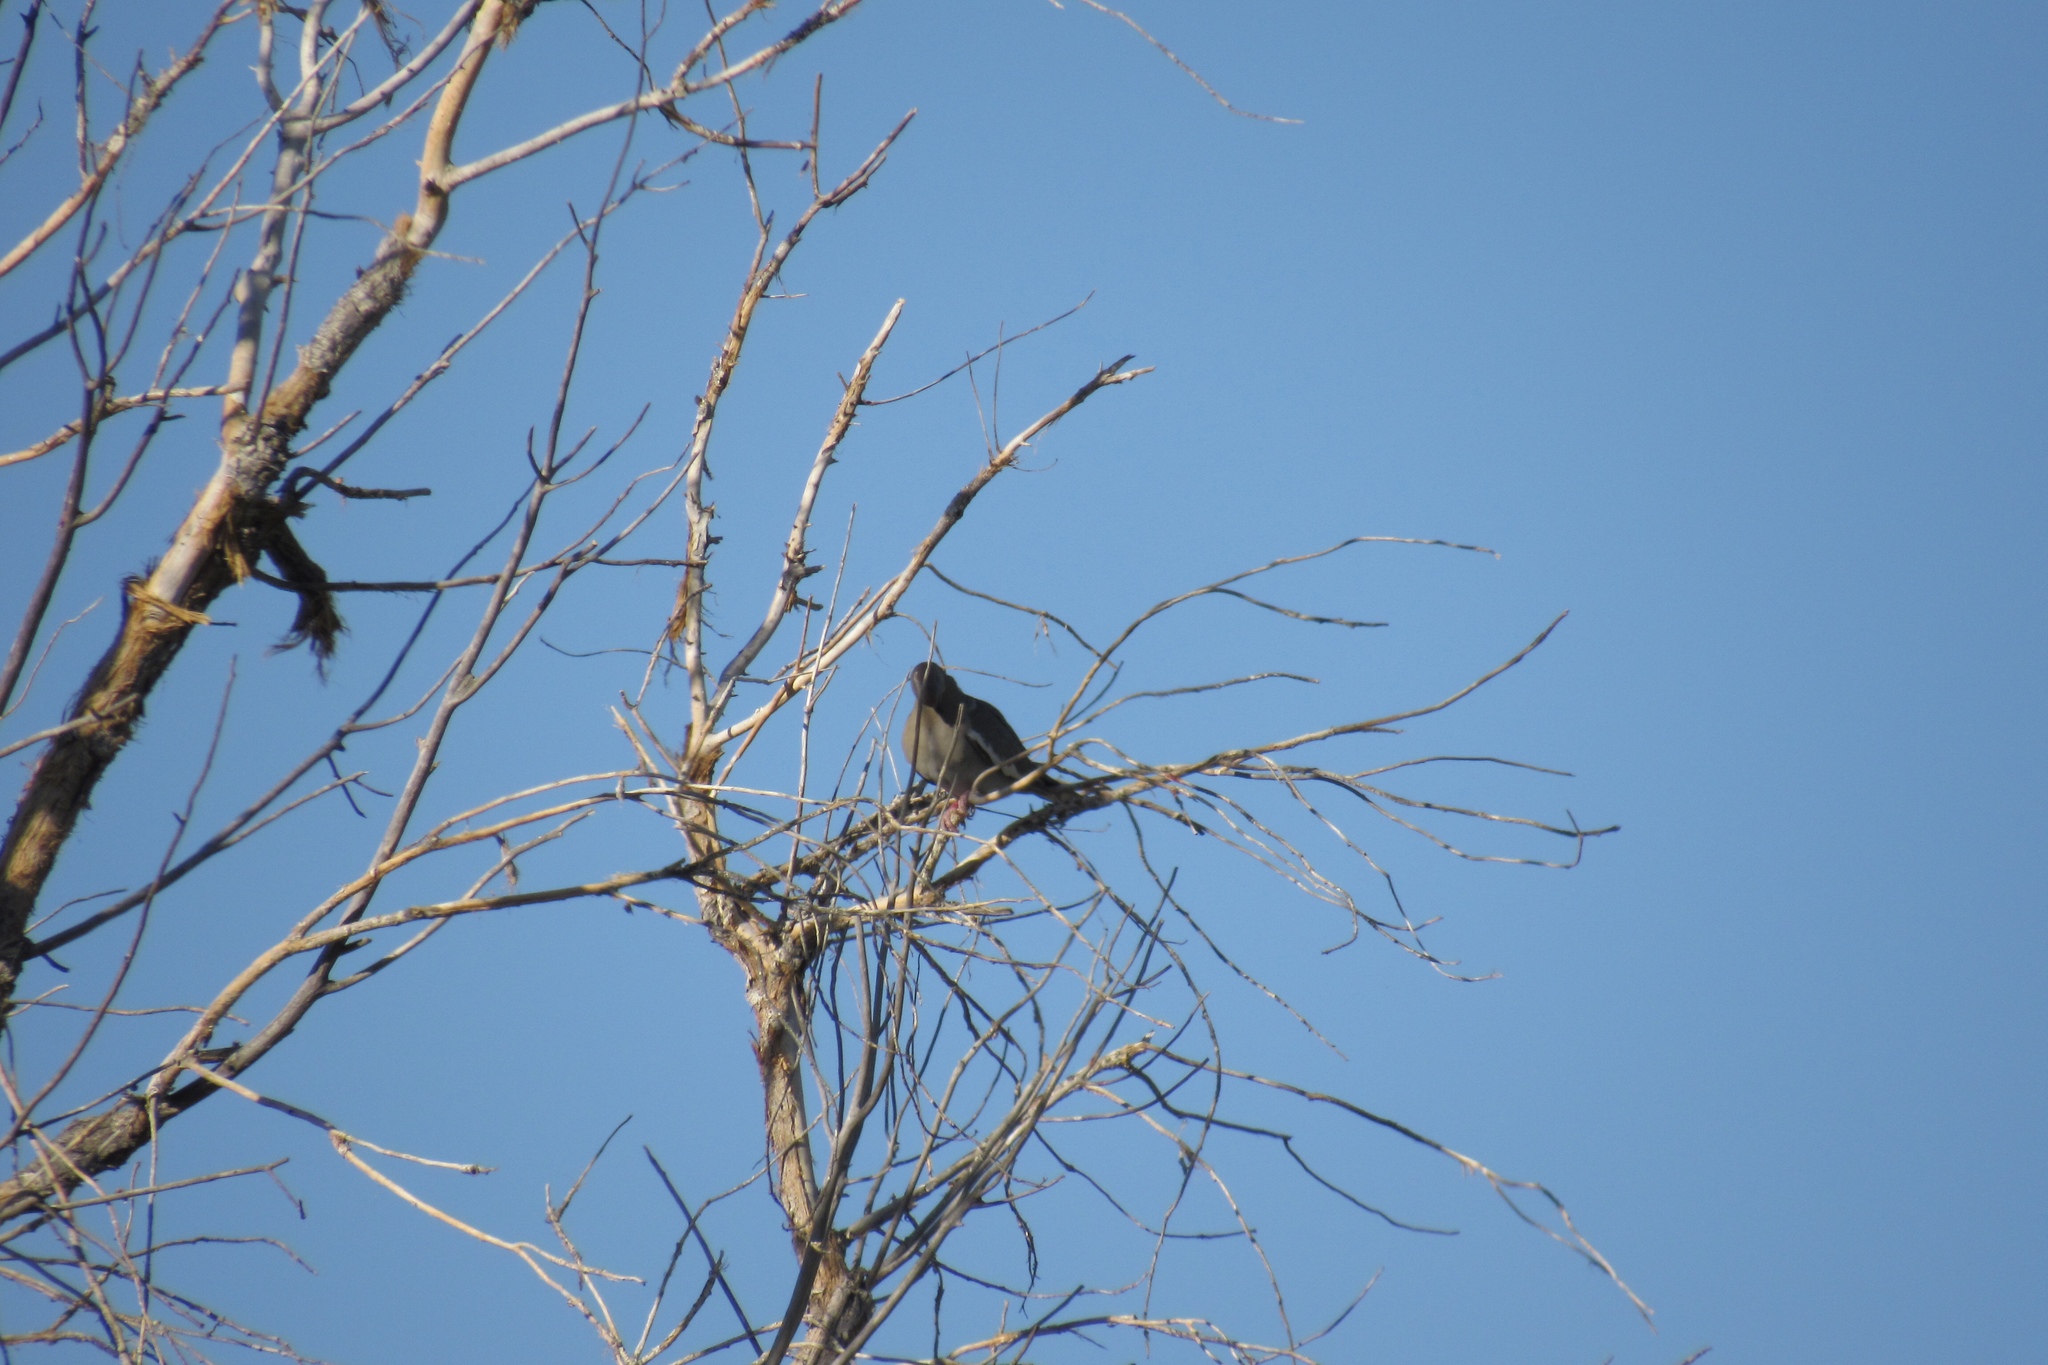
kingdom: Animalia
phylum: Chordata
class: Aves
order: Columbiformes
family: Columbidae
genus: Zenaida
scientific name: Zenaida asiatica
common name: White-winged dove
